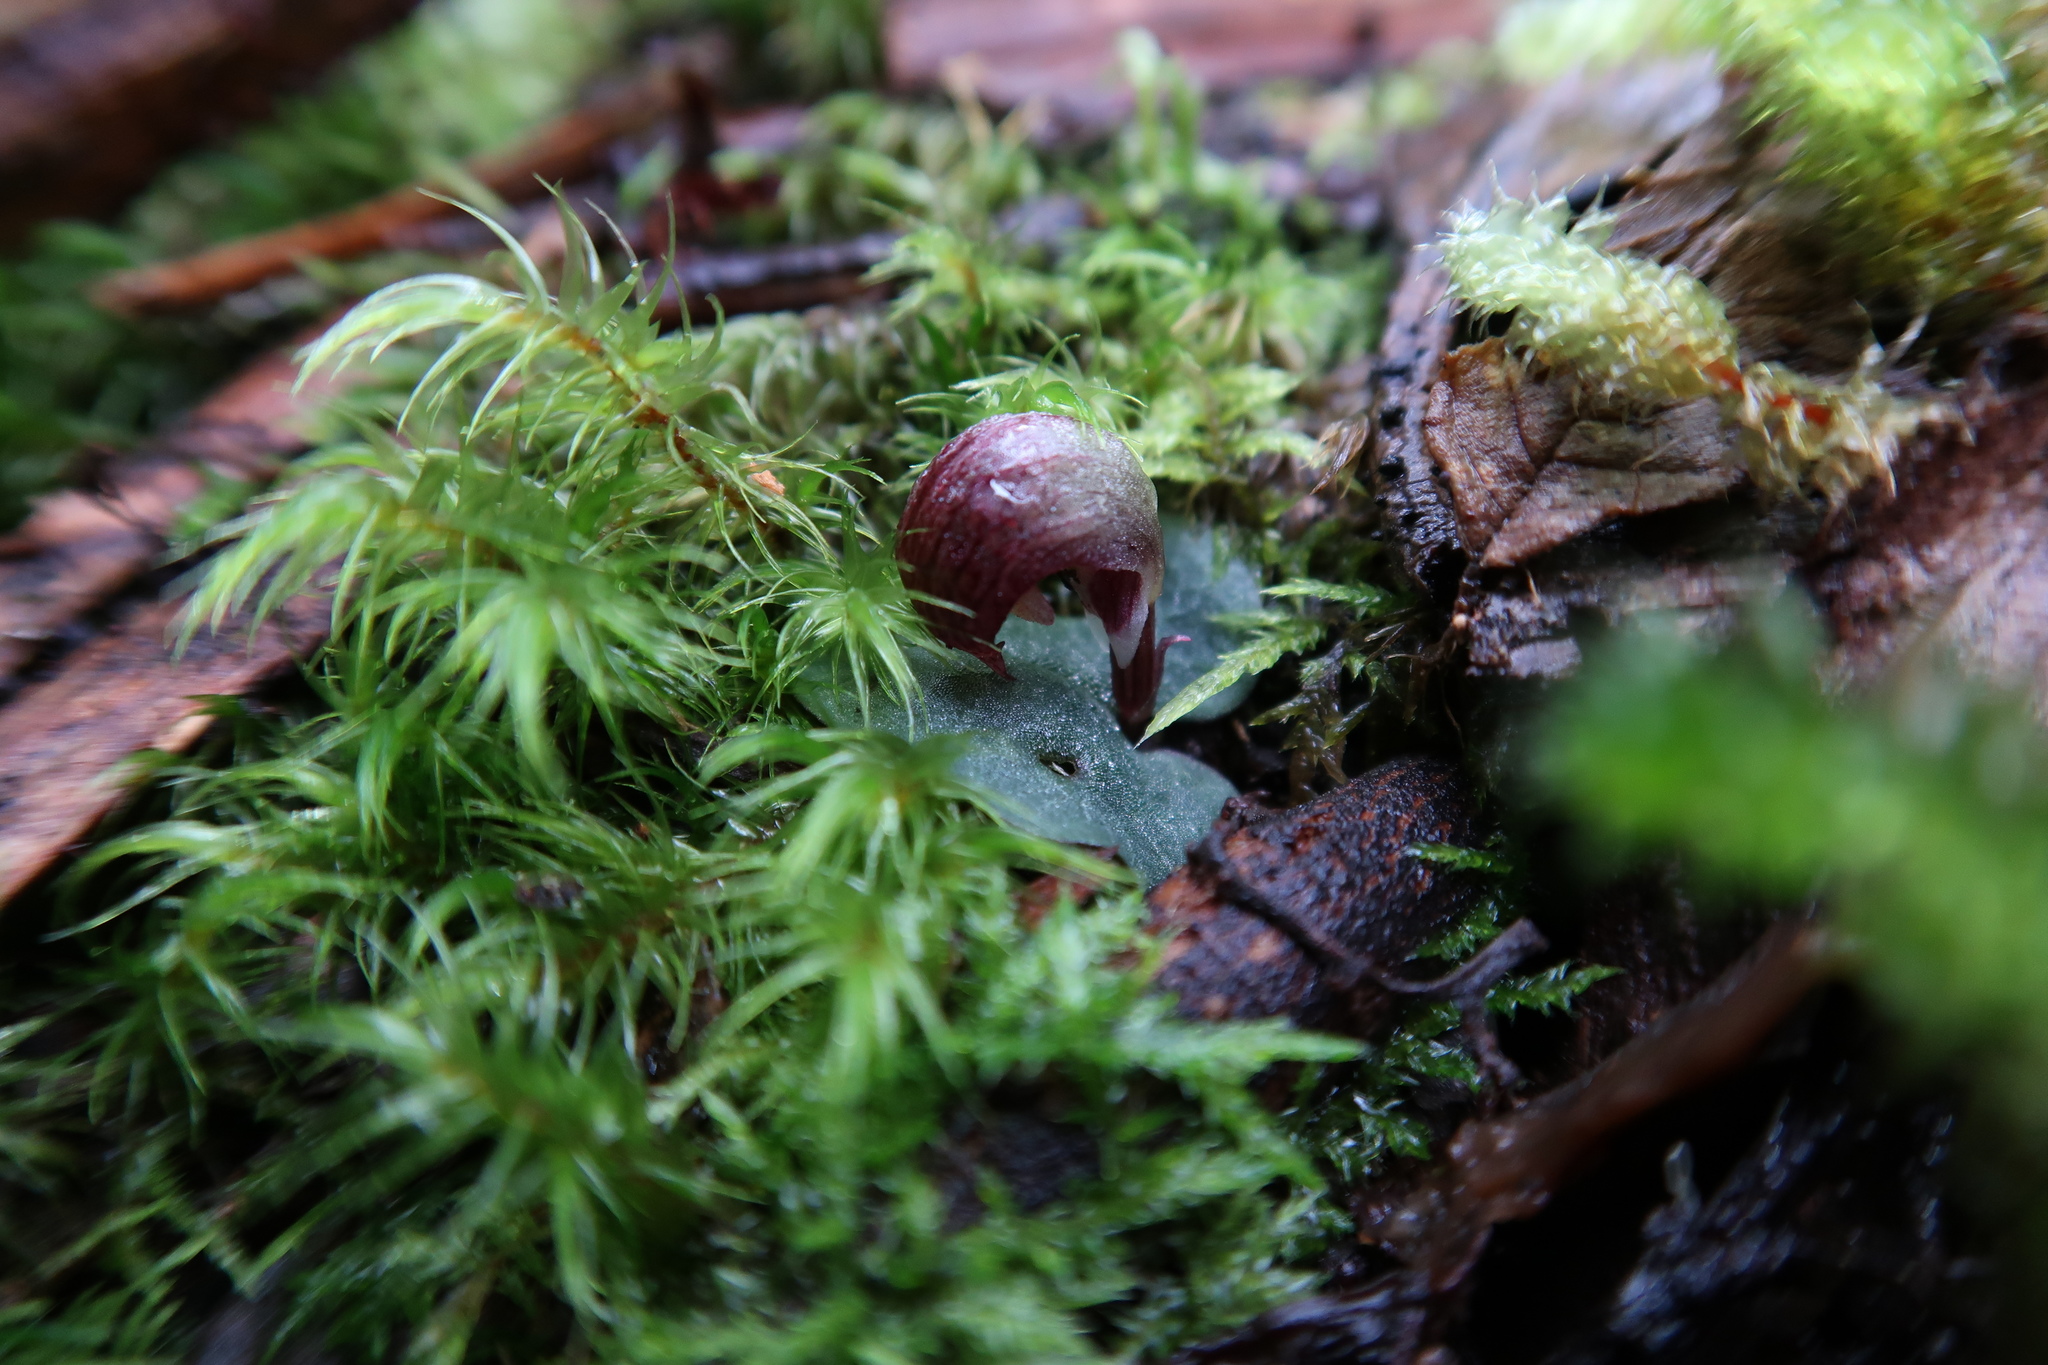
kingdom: Plantae
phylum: Tracheophyta
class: Liliopsida
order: Asparagales
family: Orchidaceae
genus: Corybas
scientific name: Corybas aconitiflorus
